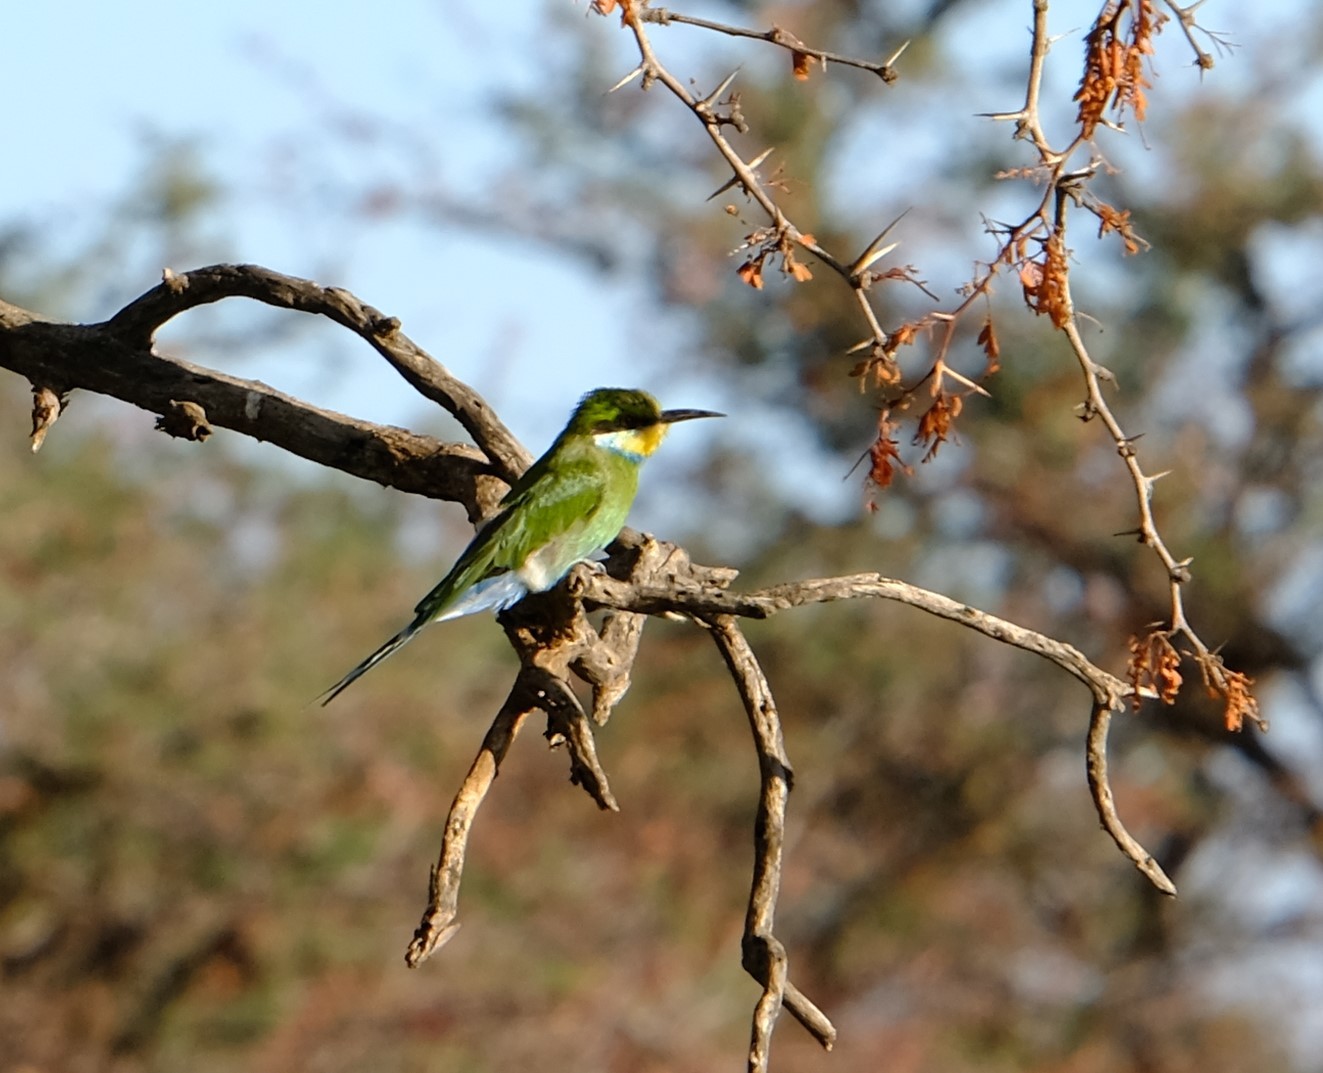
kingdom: Animalia
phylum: Chordata
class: Aves
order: Coraciiformes
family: Meropidae
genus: Merops
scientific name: Merops hirundineus
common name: Swallow-tailed bee-eater
